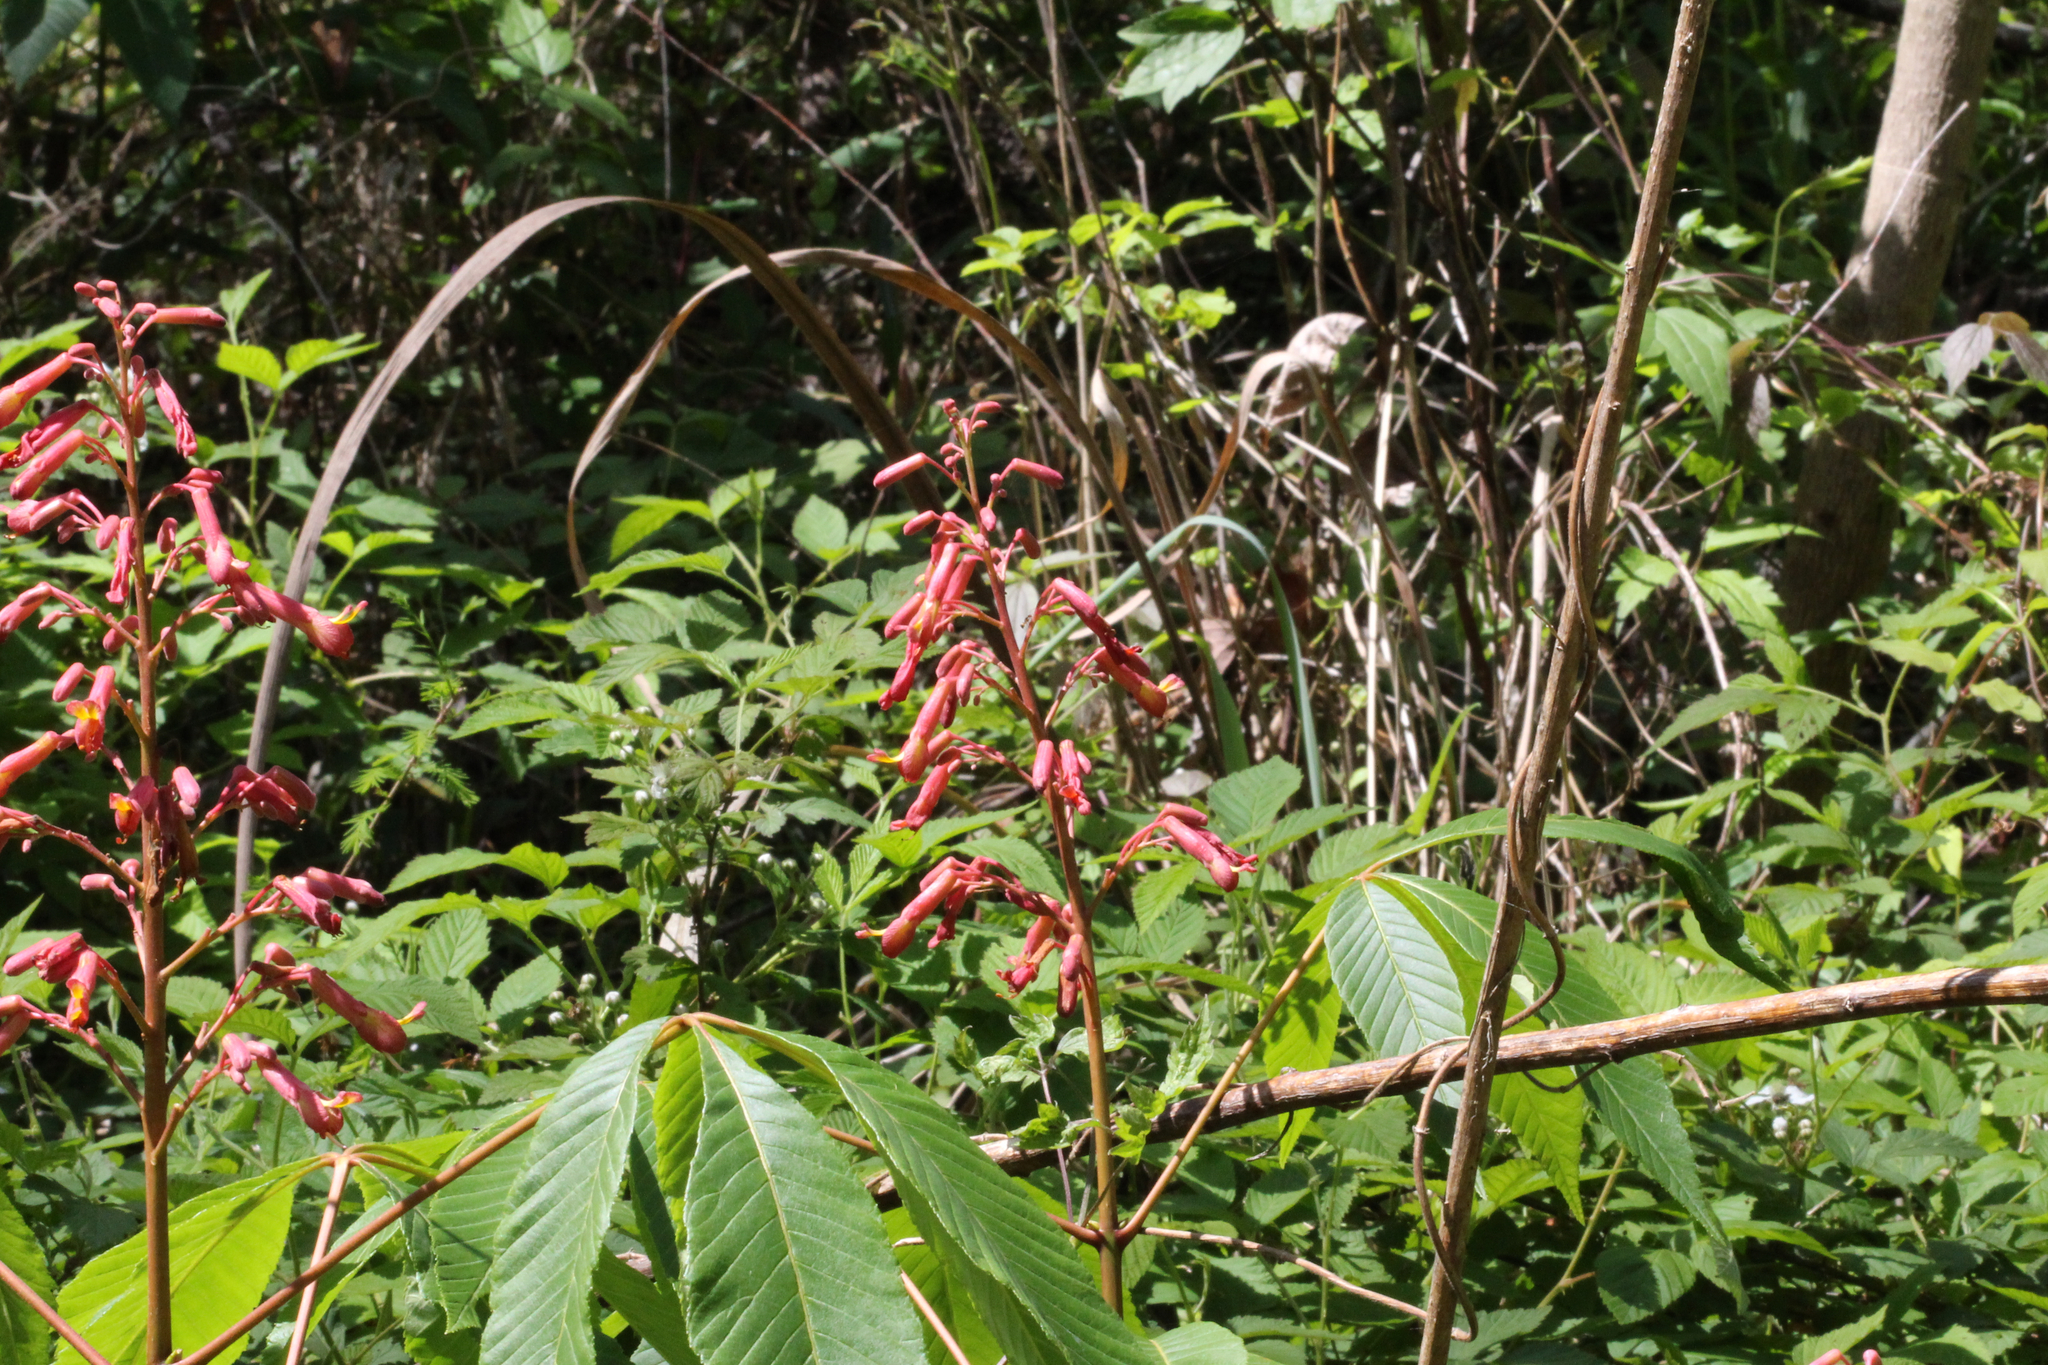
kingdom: Plantae
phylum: Tracheophyta
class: Magnoliopsida
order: Sapindales
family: Sapindaceae
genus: Aesculus
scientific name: Aesculus pavia
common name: Red buckeye
